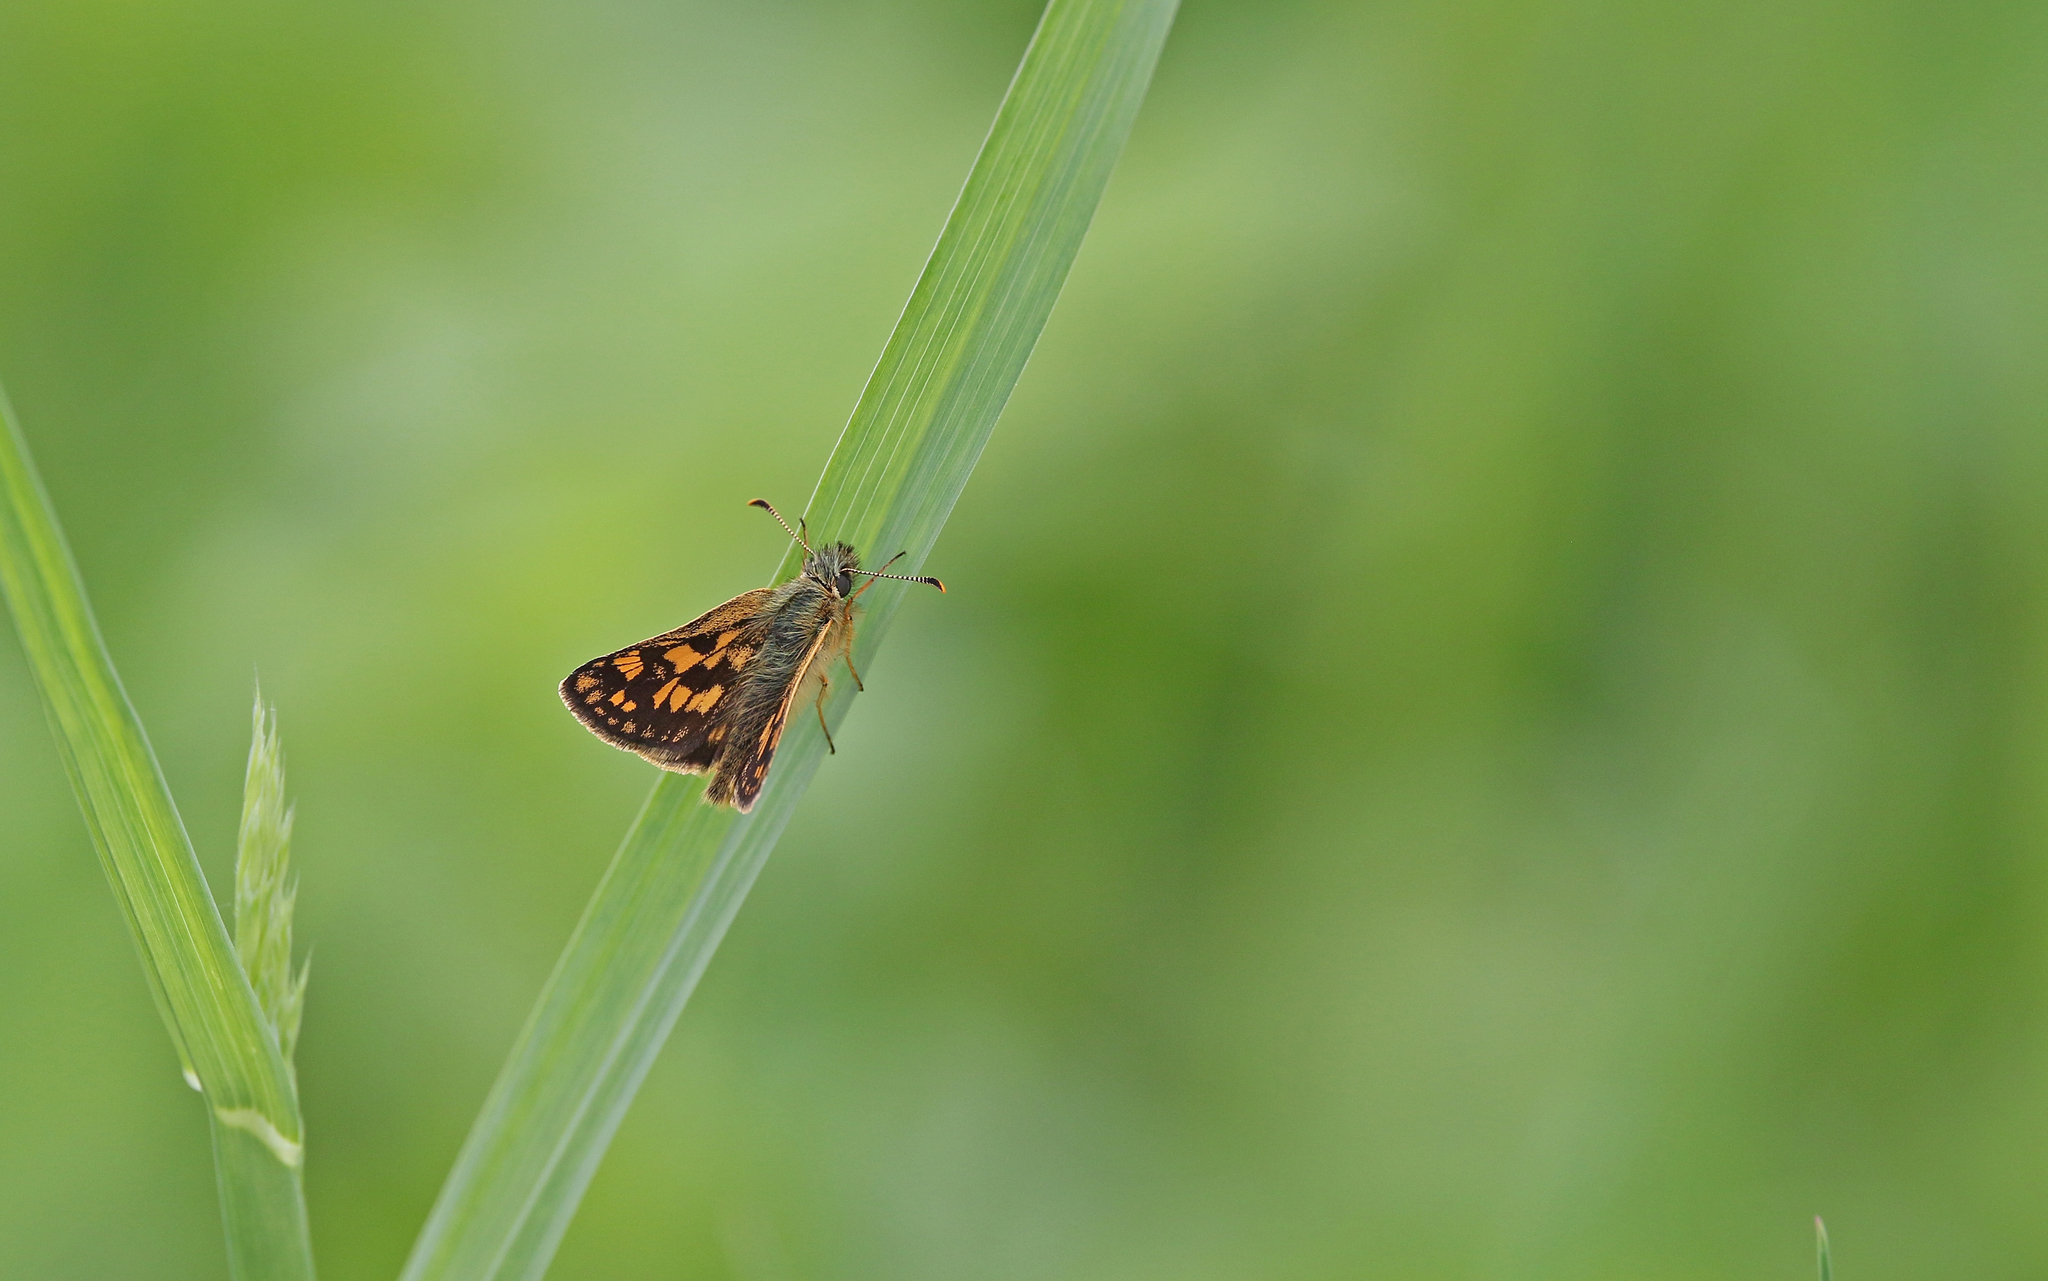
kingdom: Animalia
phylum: Arthropoda
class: Insecta
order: Lepidoptera
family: Hesperiidae
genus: Carterocephalus
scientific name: Carterocephalus palaemon
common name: Chequered skipper
